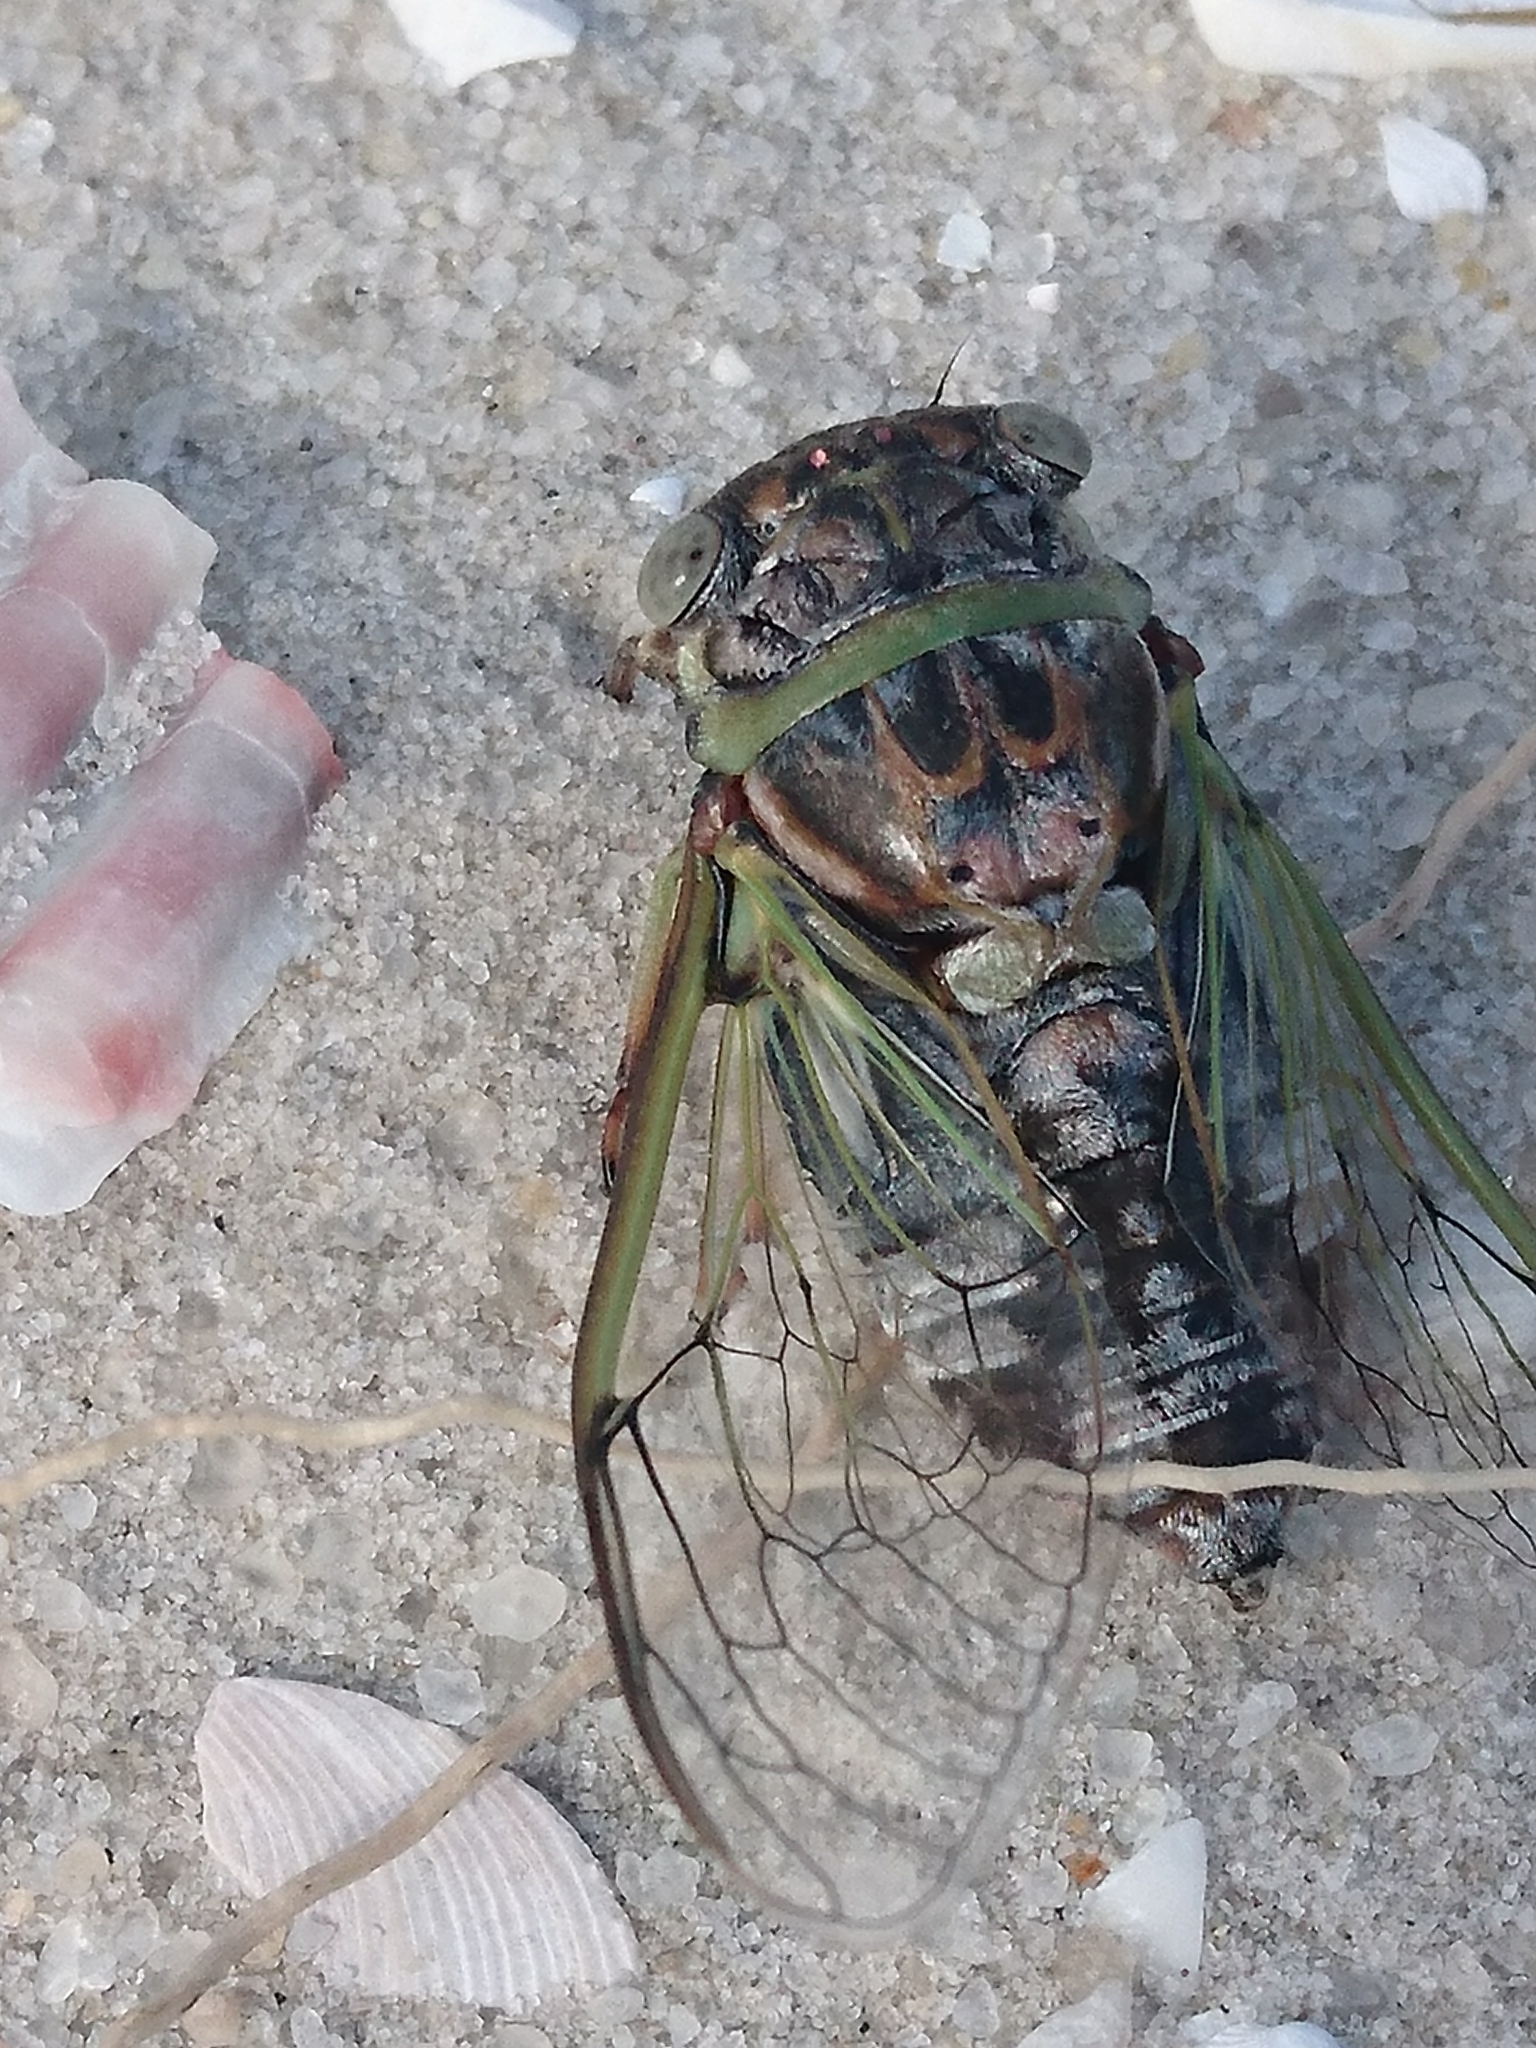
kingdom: Animalia
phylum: Arthropoda
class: Insecta
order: Hemiptera
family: Cicadidae
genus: Diceroprocta
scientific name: Diceroprocta viridifascia
